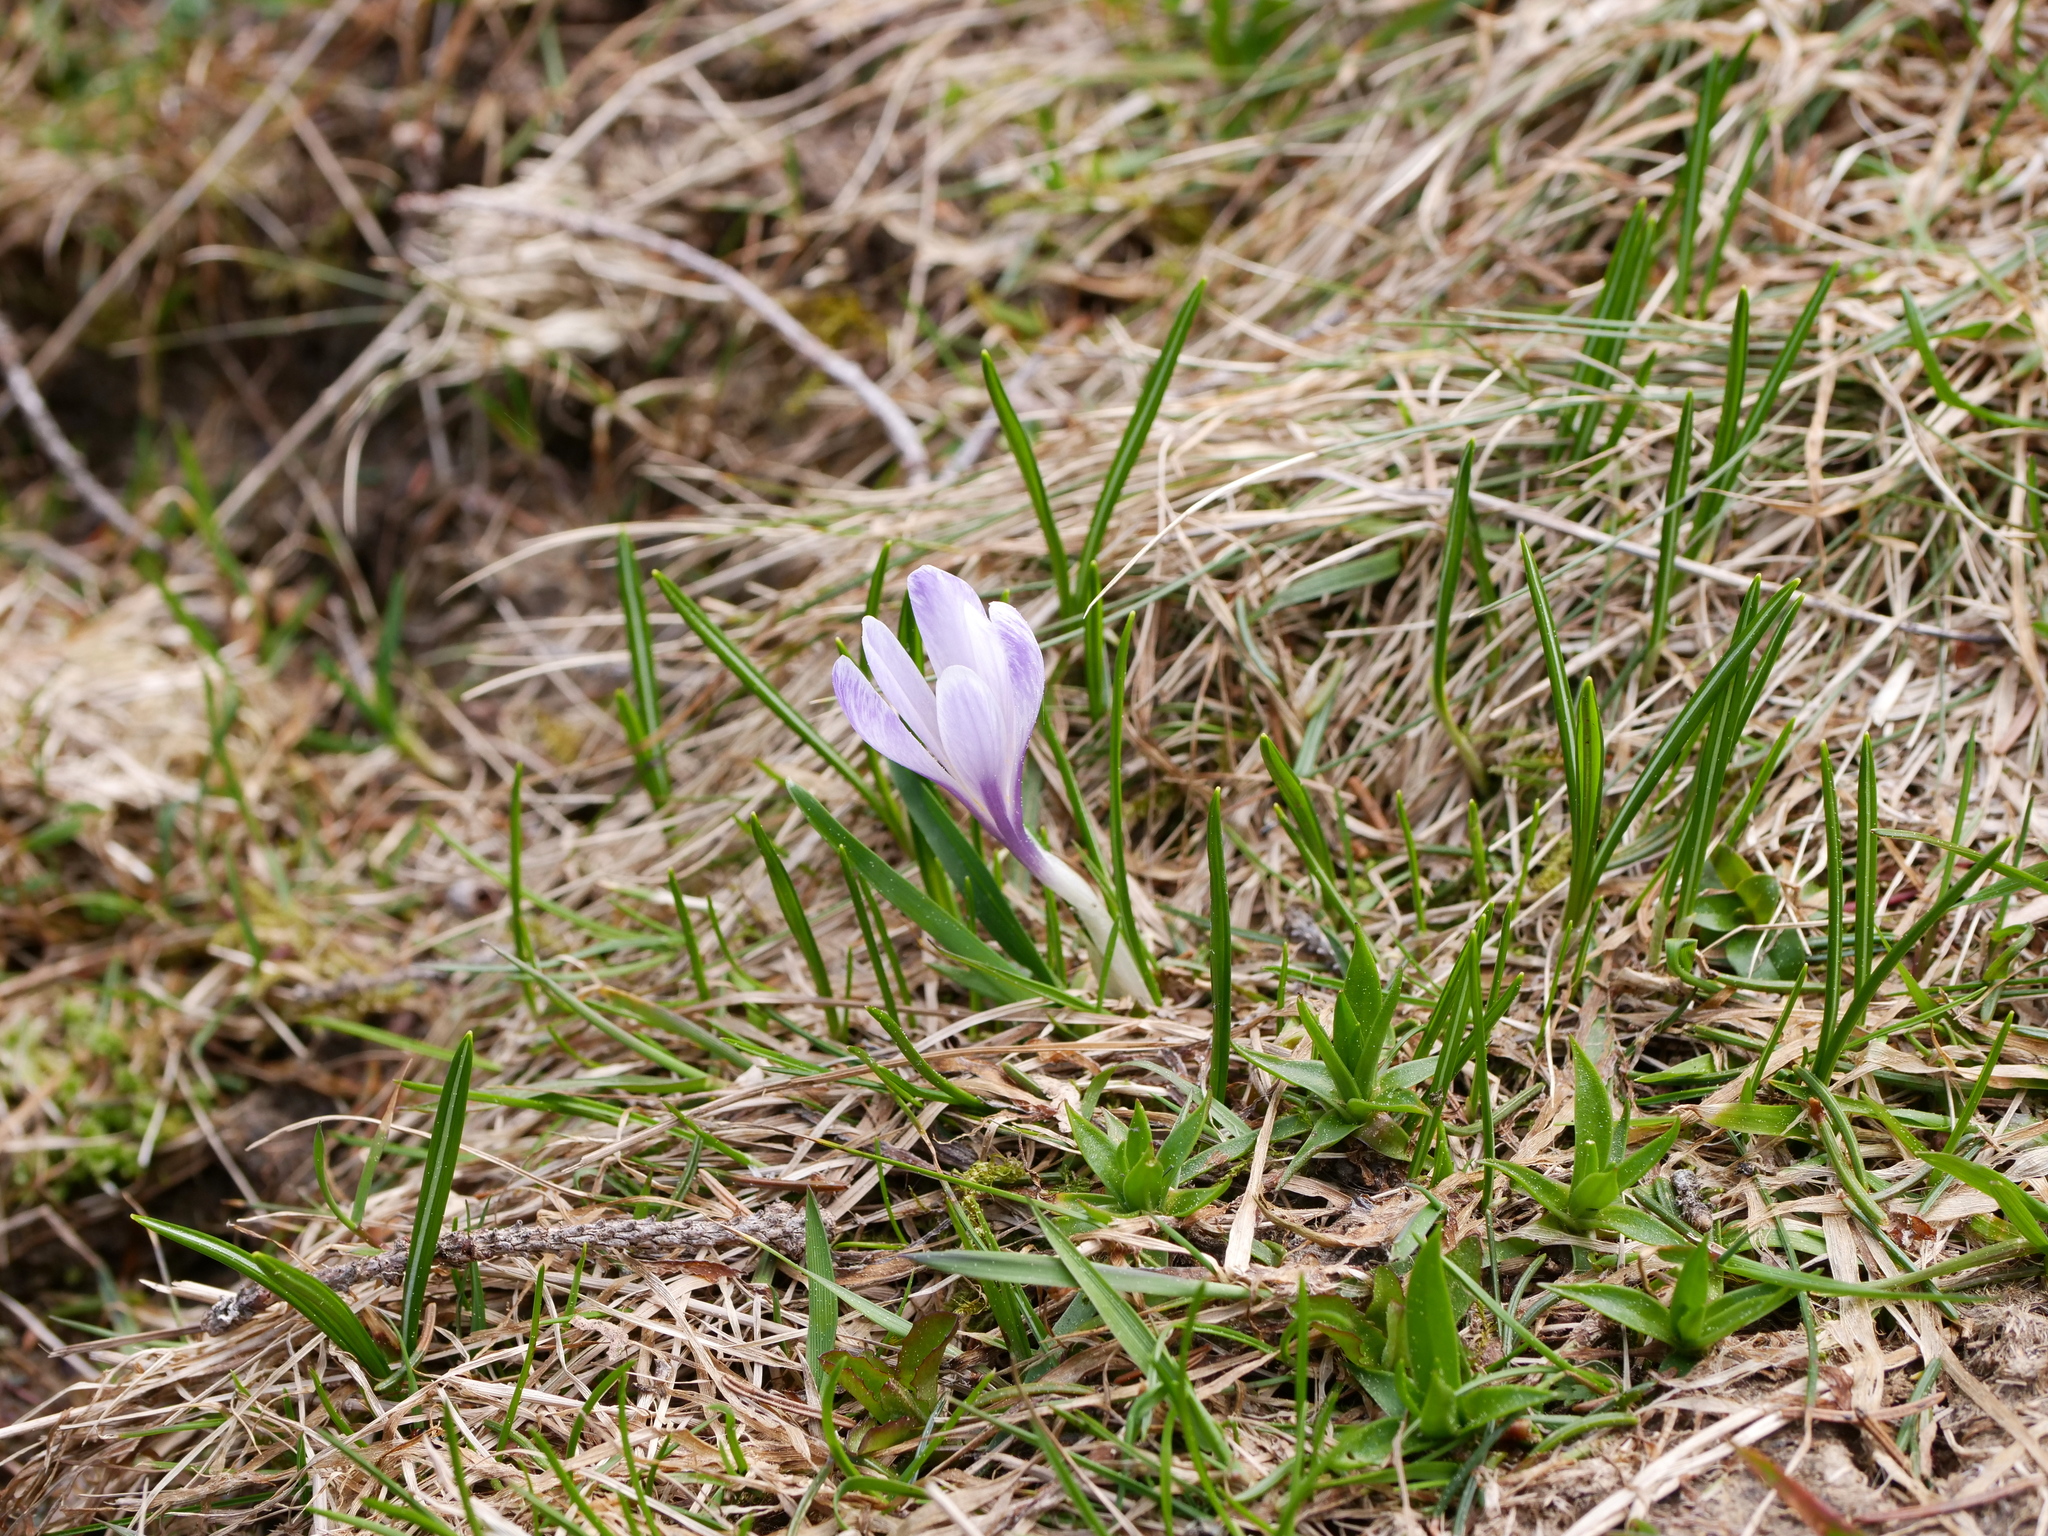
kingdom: Plantae
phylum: Tracheophyta
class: Liliopsida
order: Asparagales
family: Iridaceae
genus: Crocus
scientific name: Crocus vernus
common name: Spring crocus
